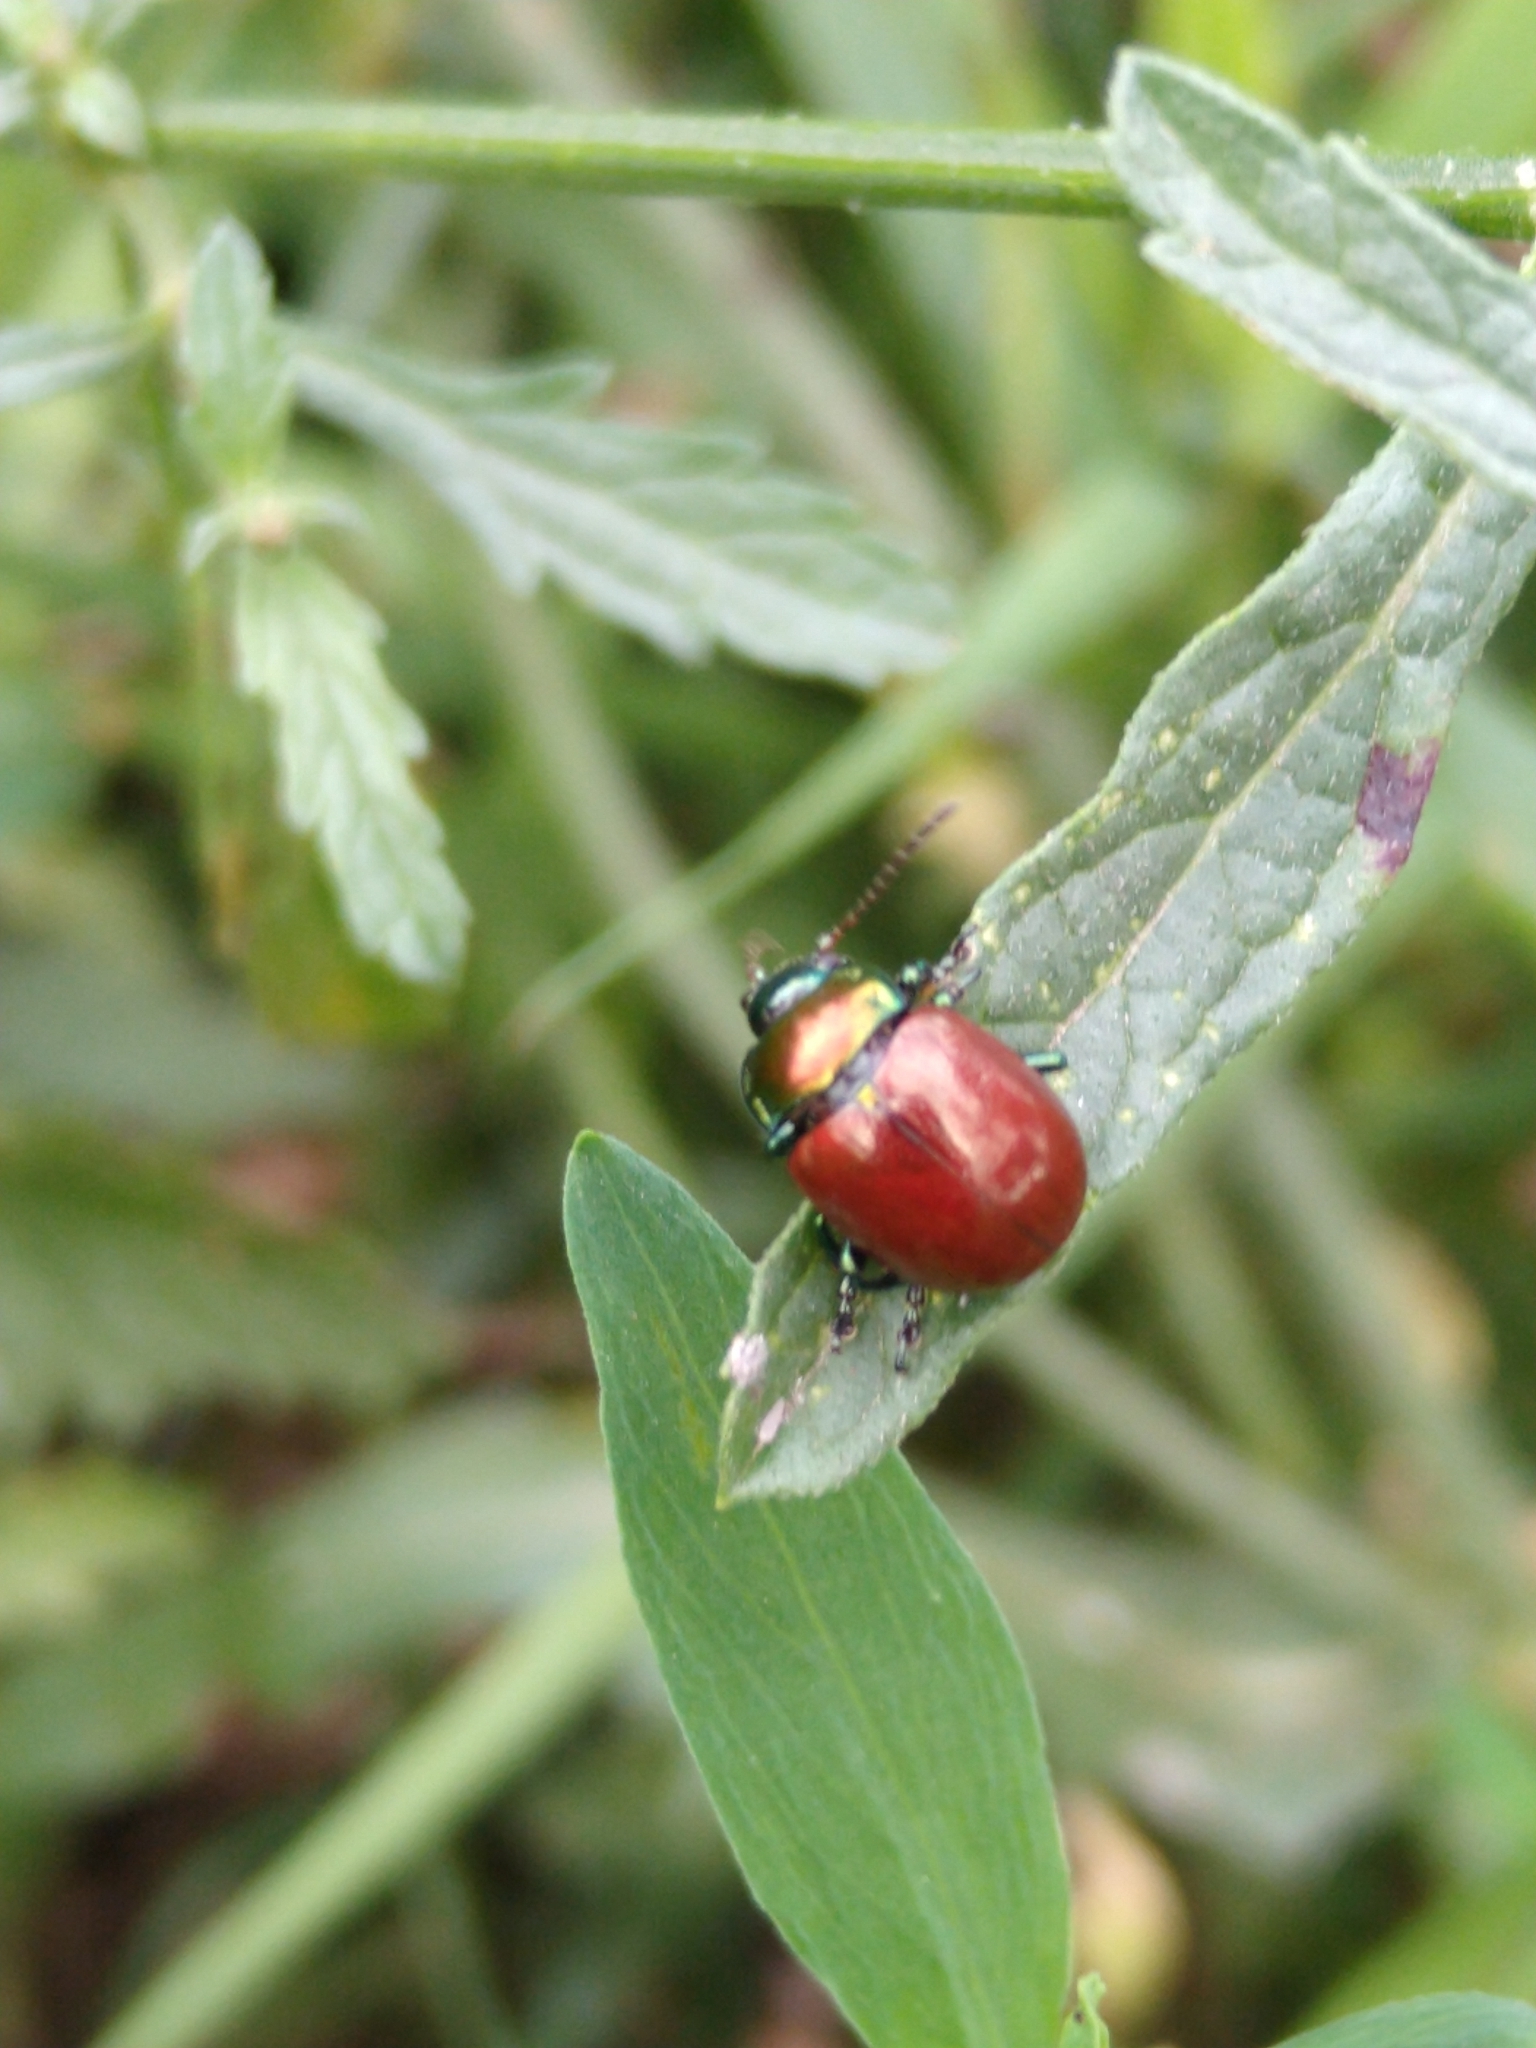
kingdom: Animalia
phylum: Arthropoda
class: Insecta
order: Coleoptera
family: Chrysomelidae
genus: Chrysomela
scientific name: Chrysomela polita
